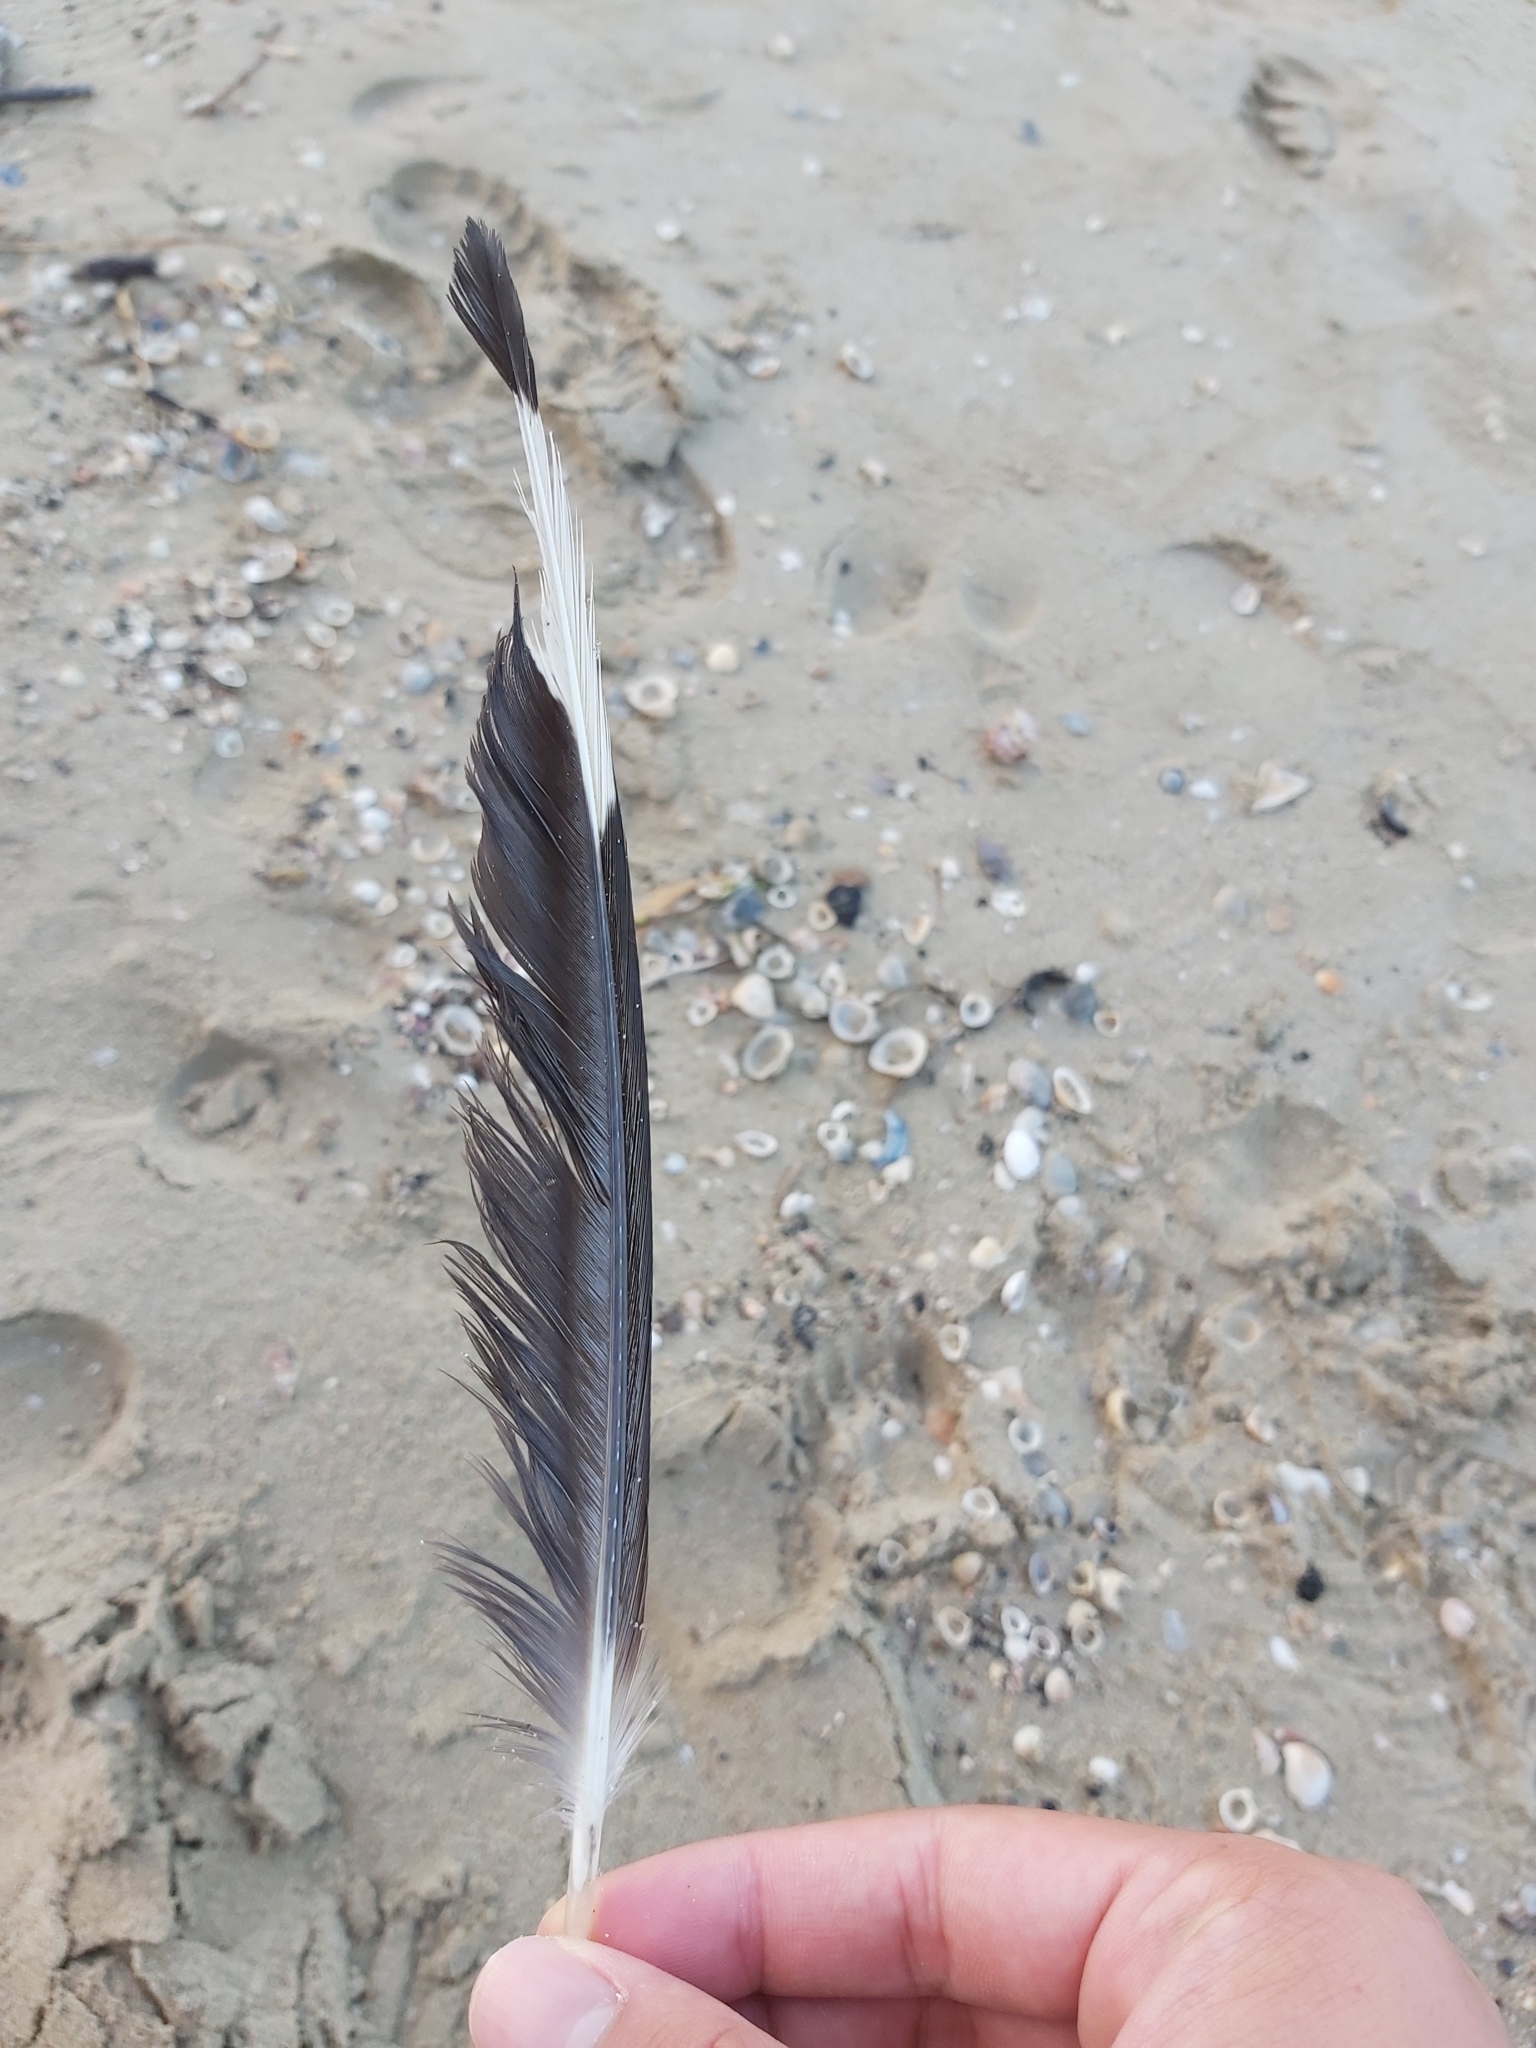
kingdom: Animalia
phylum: Chordata
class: Aves
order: Charadriiformes
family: Laridae
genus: Chroicocephalus
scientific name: Chroicocephalus novaehollandiae
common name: Silver gull
